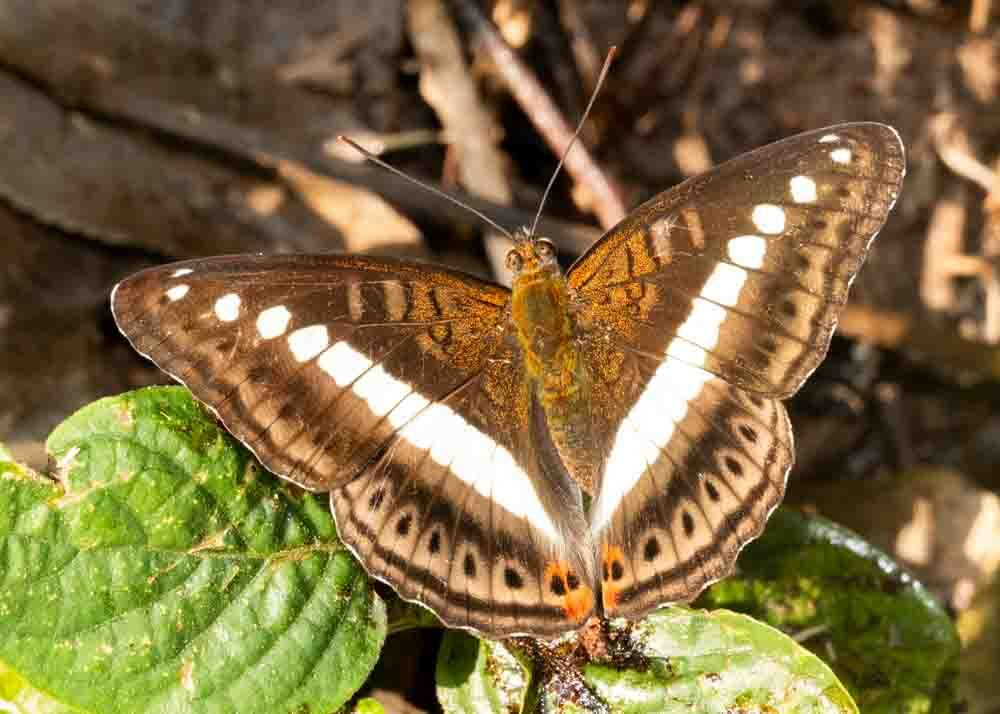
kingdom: Animalia
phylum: Arthropoda
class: Insecta
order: Lepidoptera
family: Nymphalidae
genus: Limenitis
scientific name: Limenitis Sumalia daraxa
